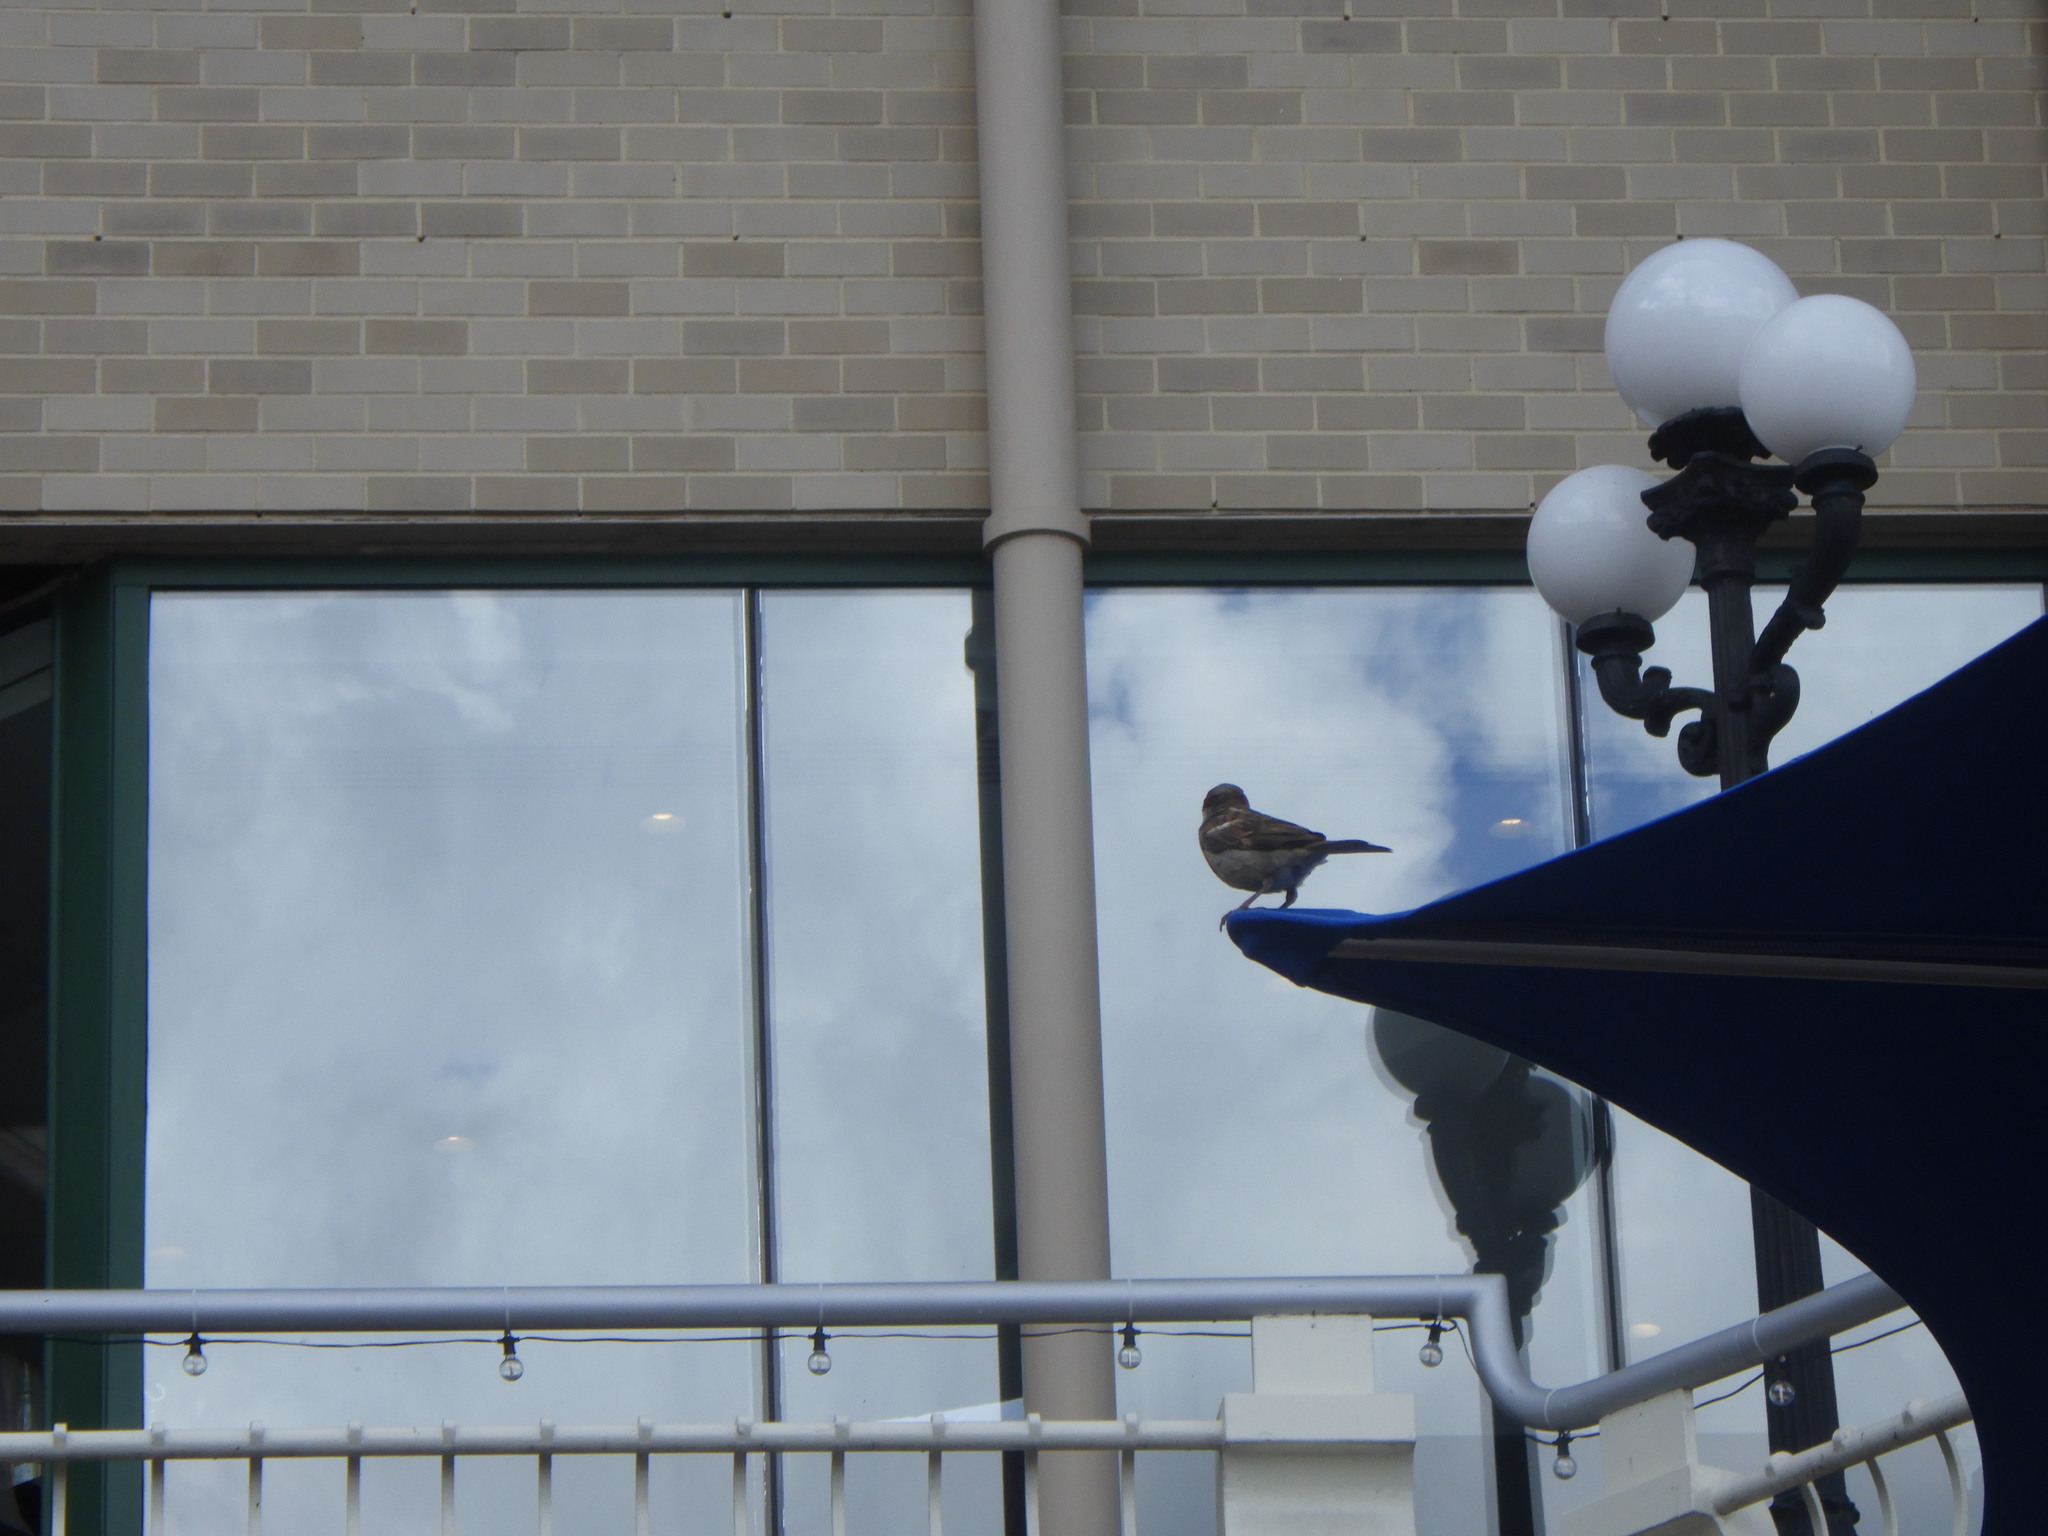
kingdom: Animalia
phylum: Chordata
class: Aves
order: Passeriformes
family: Passeridae
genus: Passer
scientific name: Passer domesticus
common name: House sparrow
